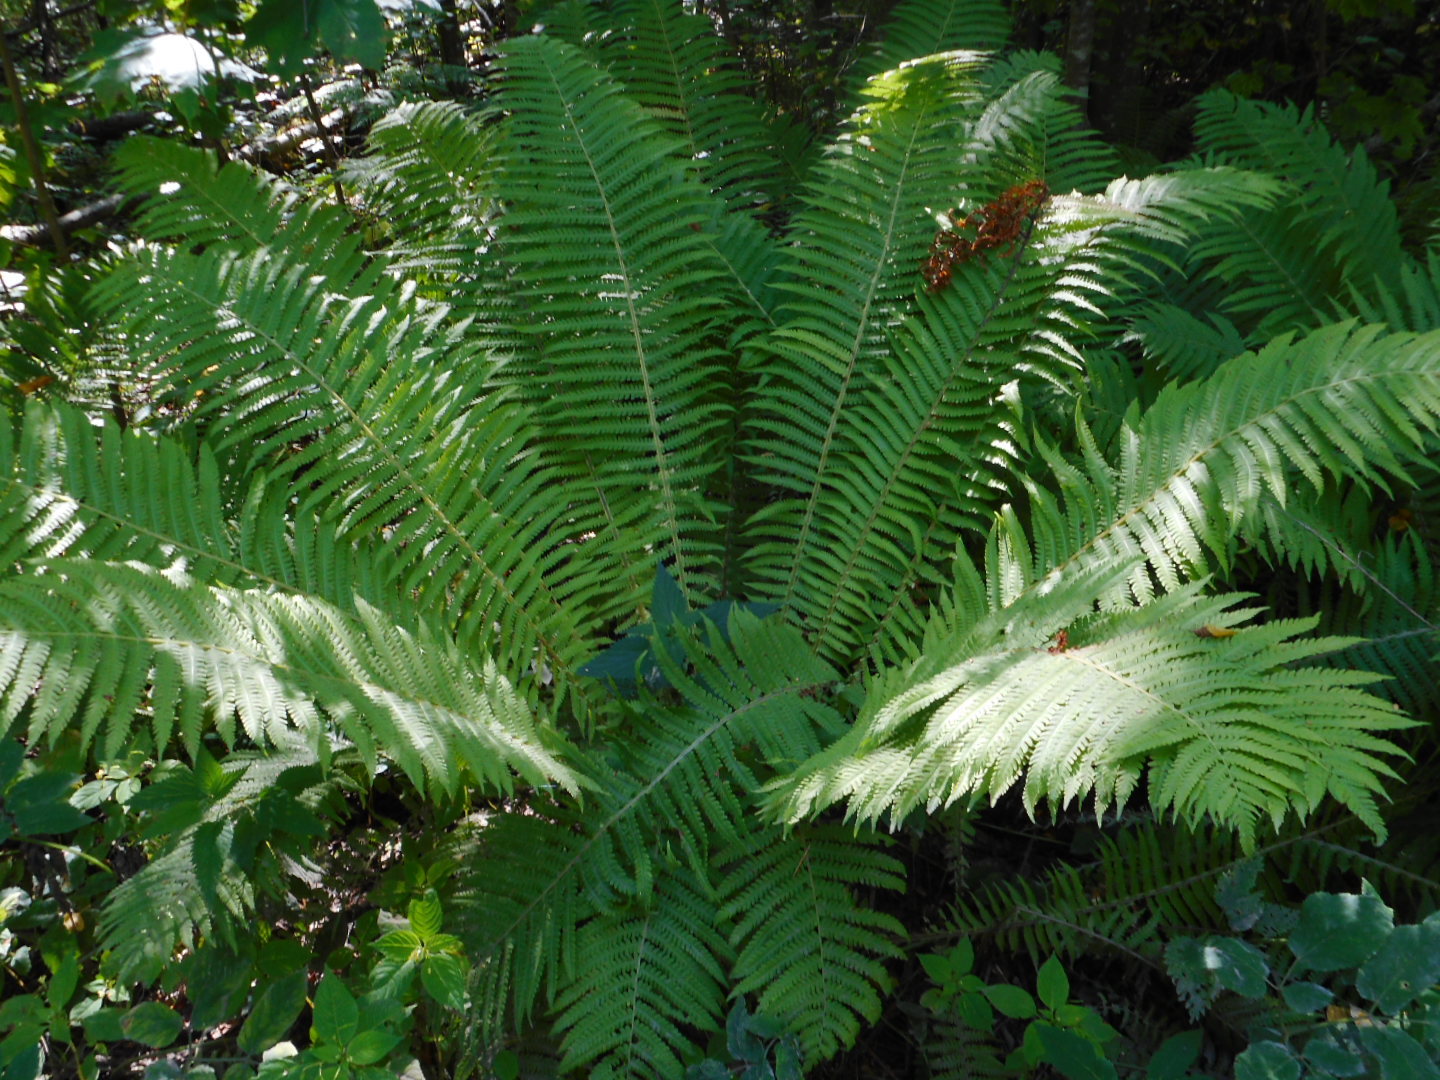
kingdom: Plantae
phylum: Tracheophyta
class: Polypodiopsida
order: Polypodiales
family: Onocleaceae
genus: Matteuccia
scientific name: Matteuccia struthiopteris
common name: Ostrich fern
